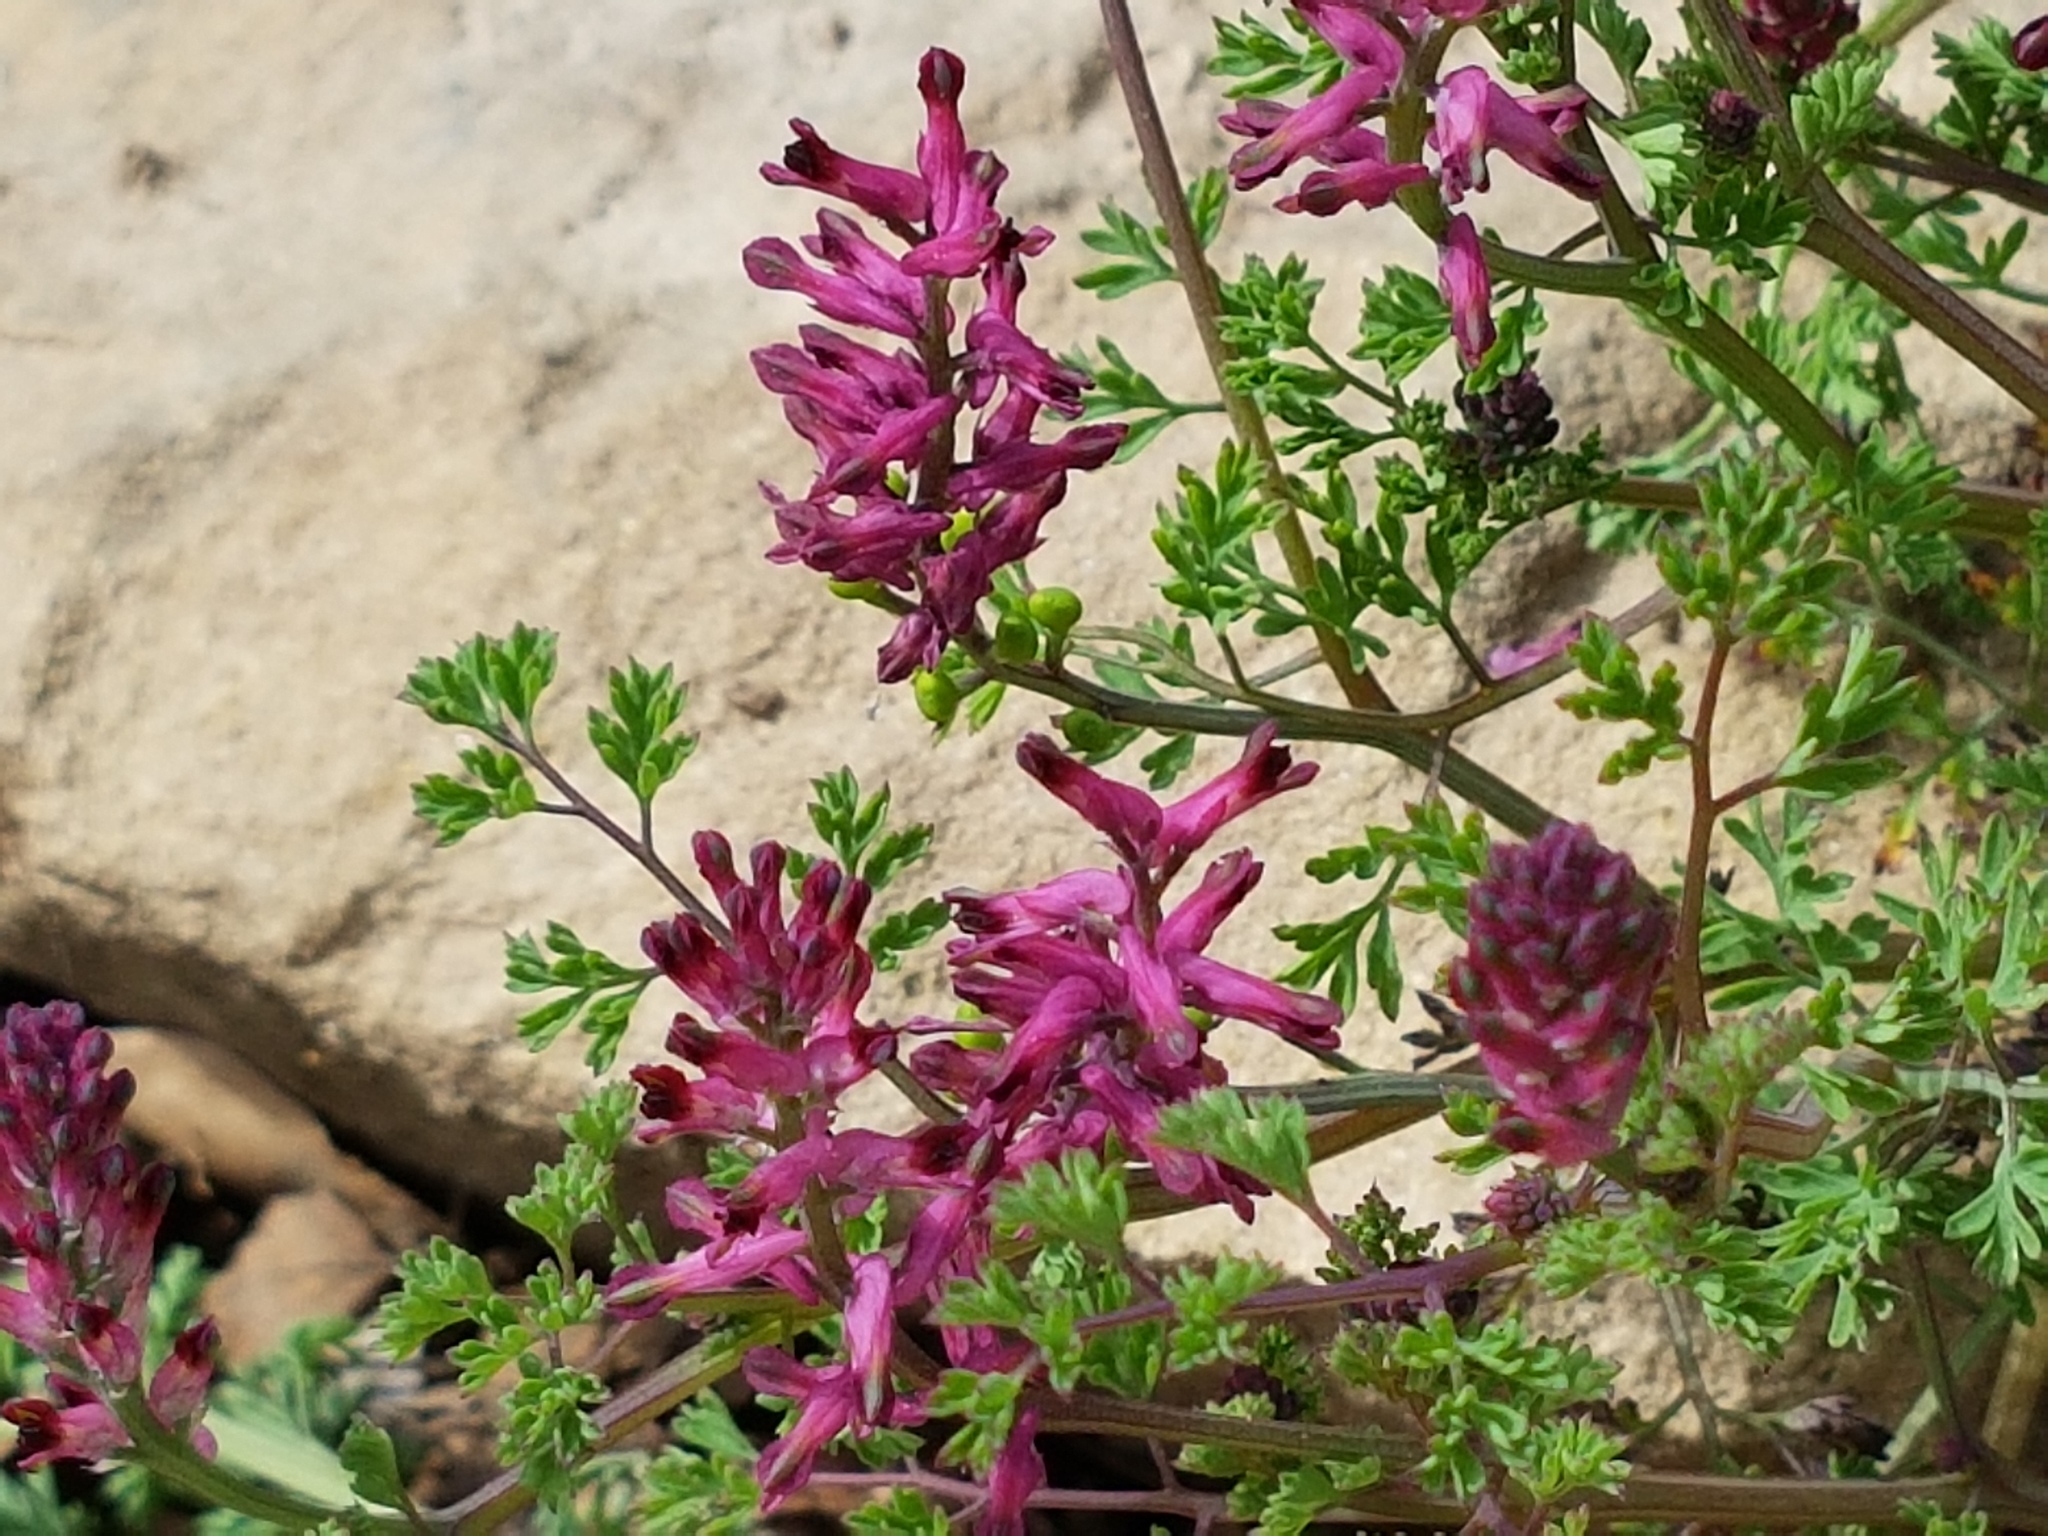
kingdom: Plantae
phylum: Tracheophyta
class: Magnoliopsida
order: Ranunculales
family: Papaveraceae
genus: Fumaria
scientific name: Fumaria officinalis
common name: Common fumitory
